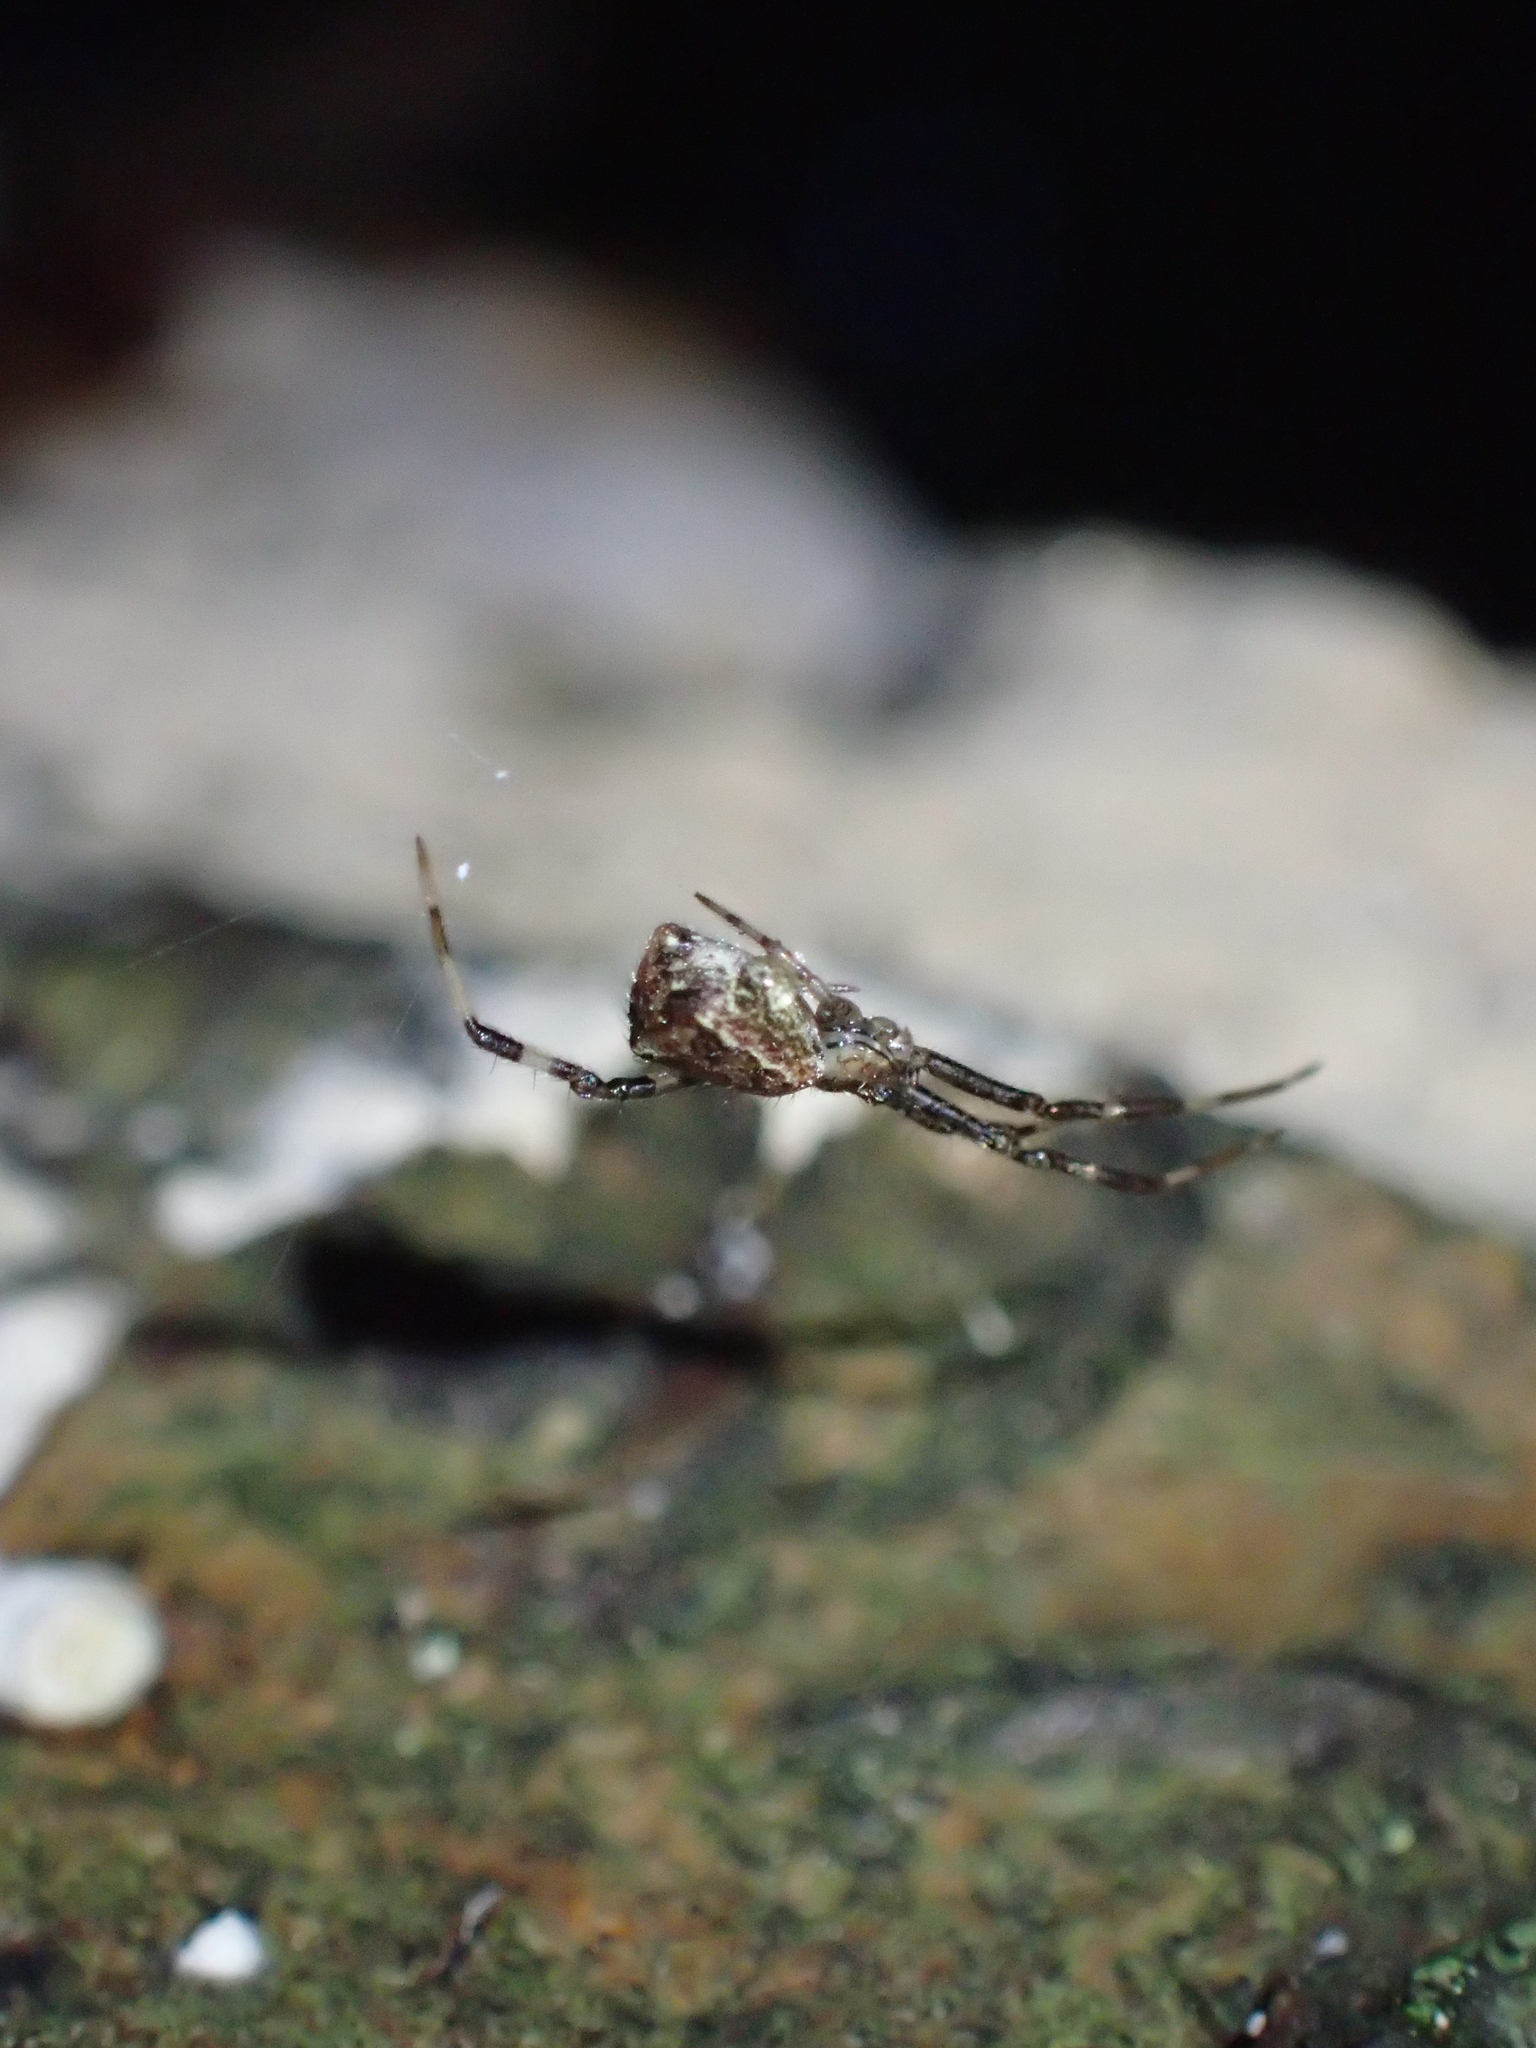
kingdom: Animalia
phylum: Arthropoda
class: Arachnida
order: Araneae
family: Theridiidae
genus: Episinus
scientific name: Episinus maculipes
